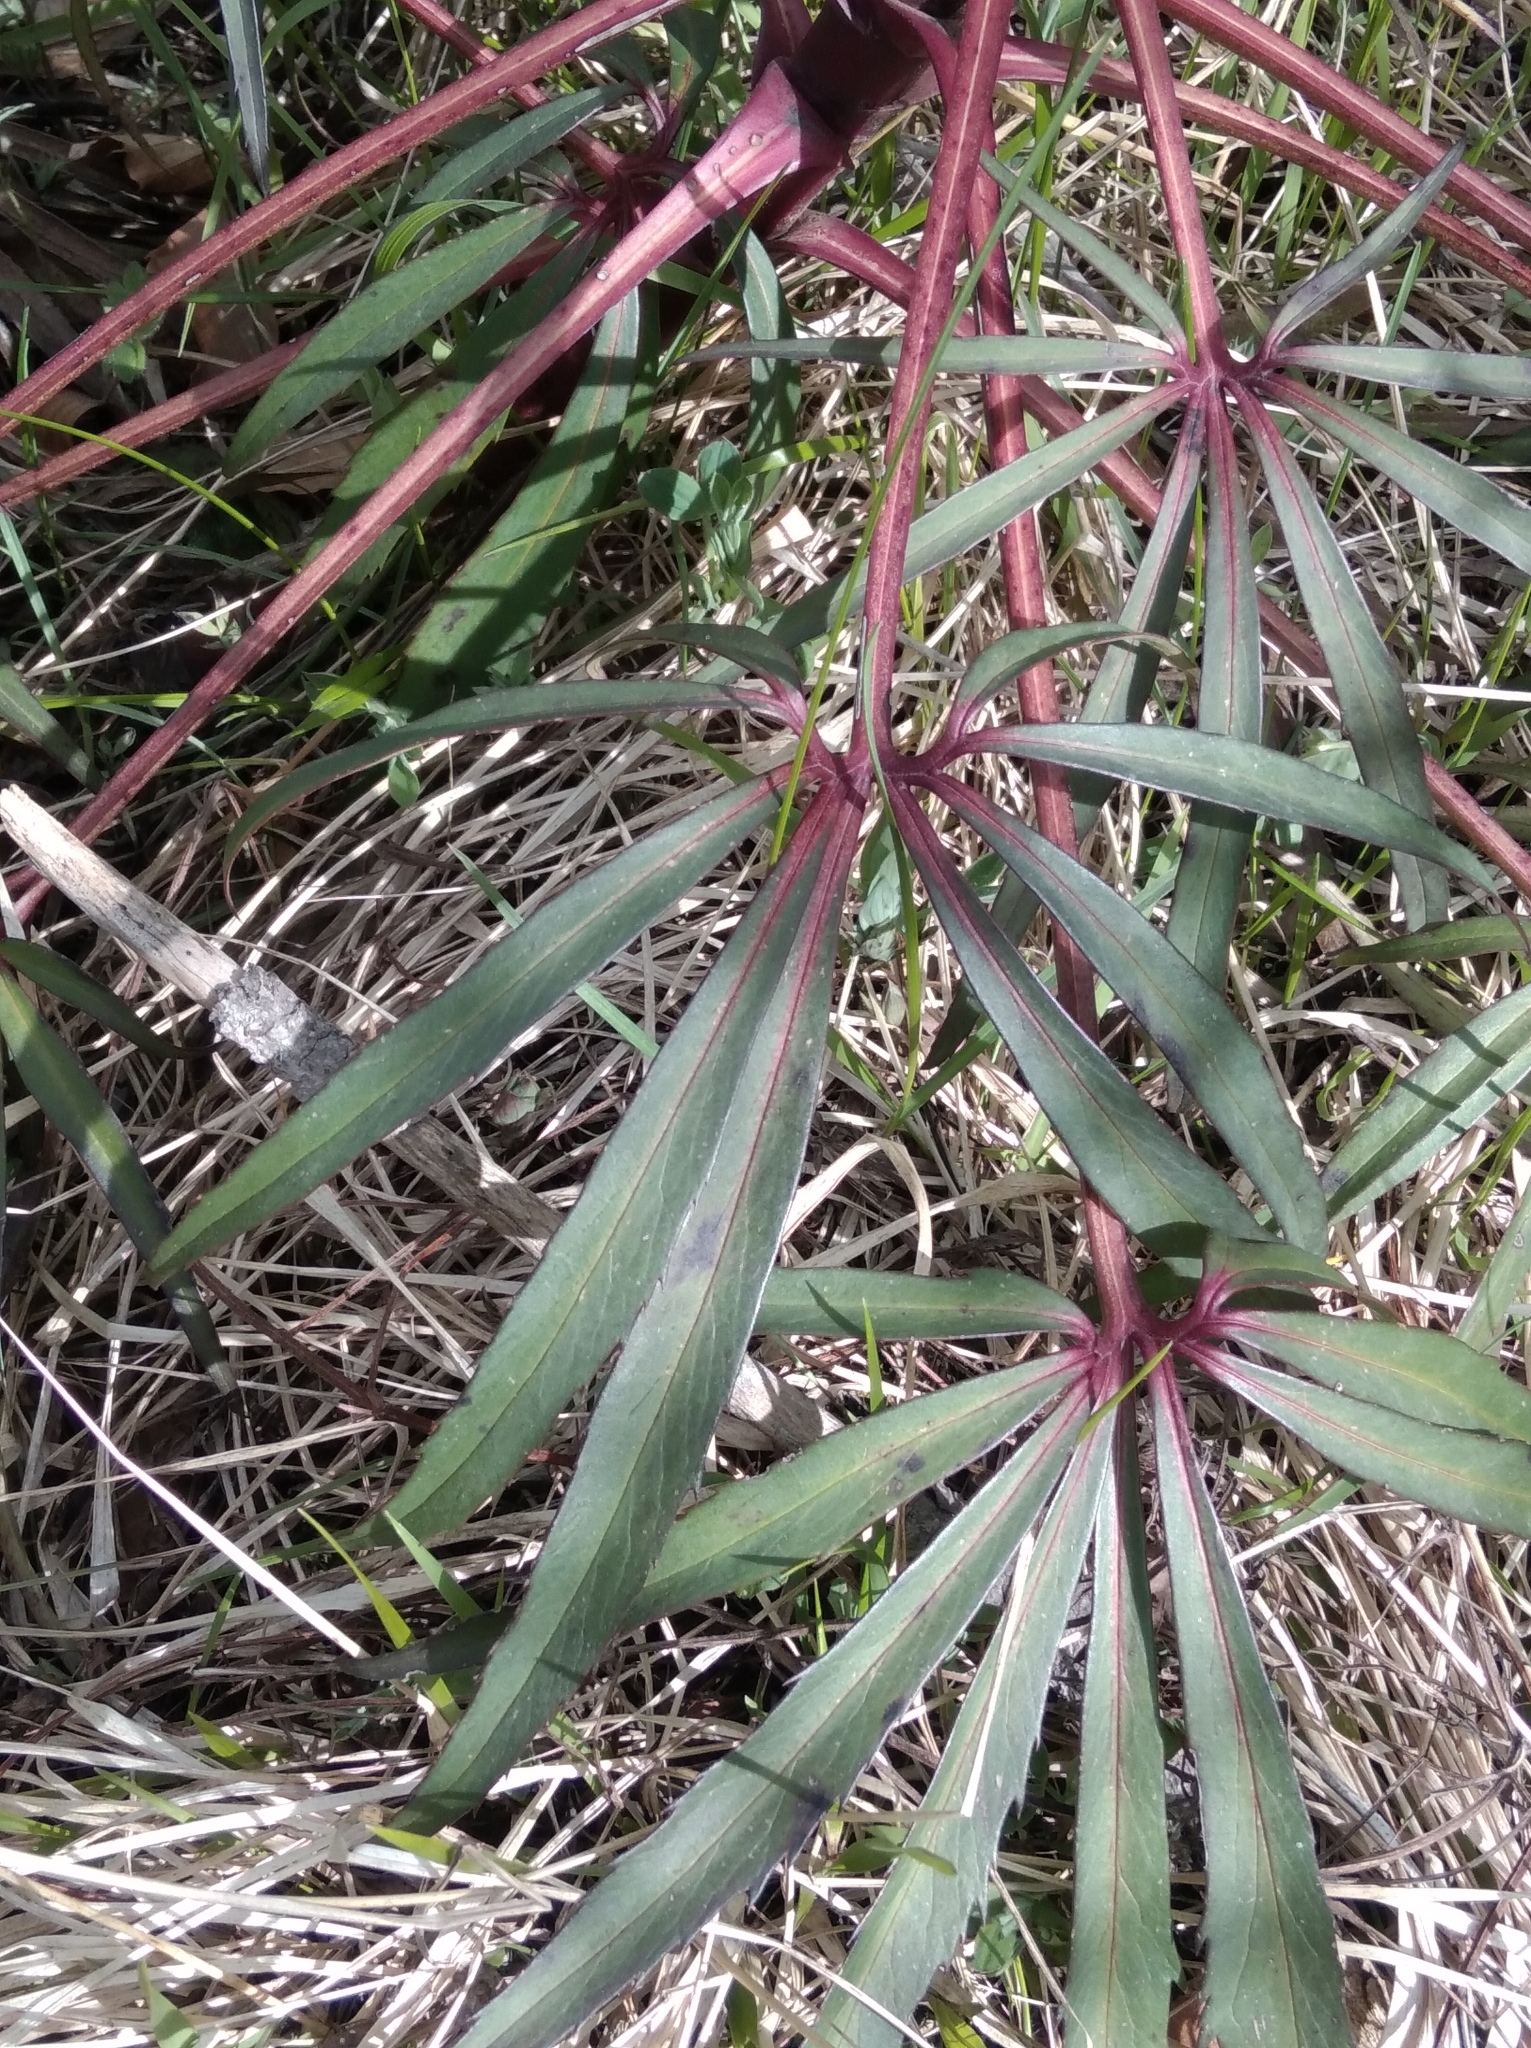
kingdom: Plantae
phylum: Tracheophyta
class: Magnoliopsida
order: Ranunculales
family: Ranunculaceae
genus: Helleborus
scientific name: Helleborus foetidus
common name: Stinking hellebore
